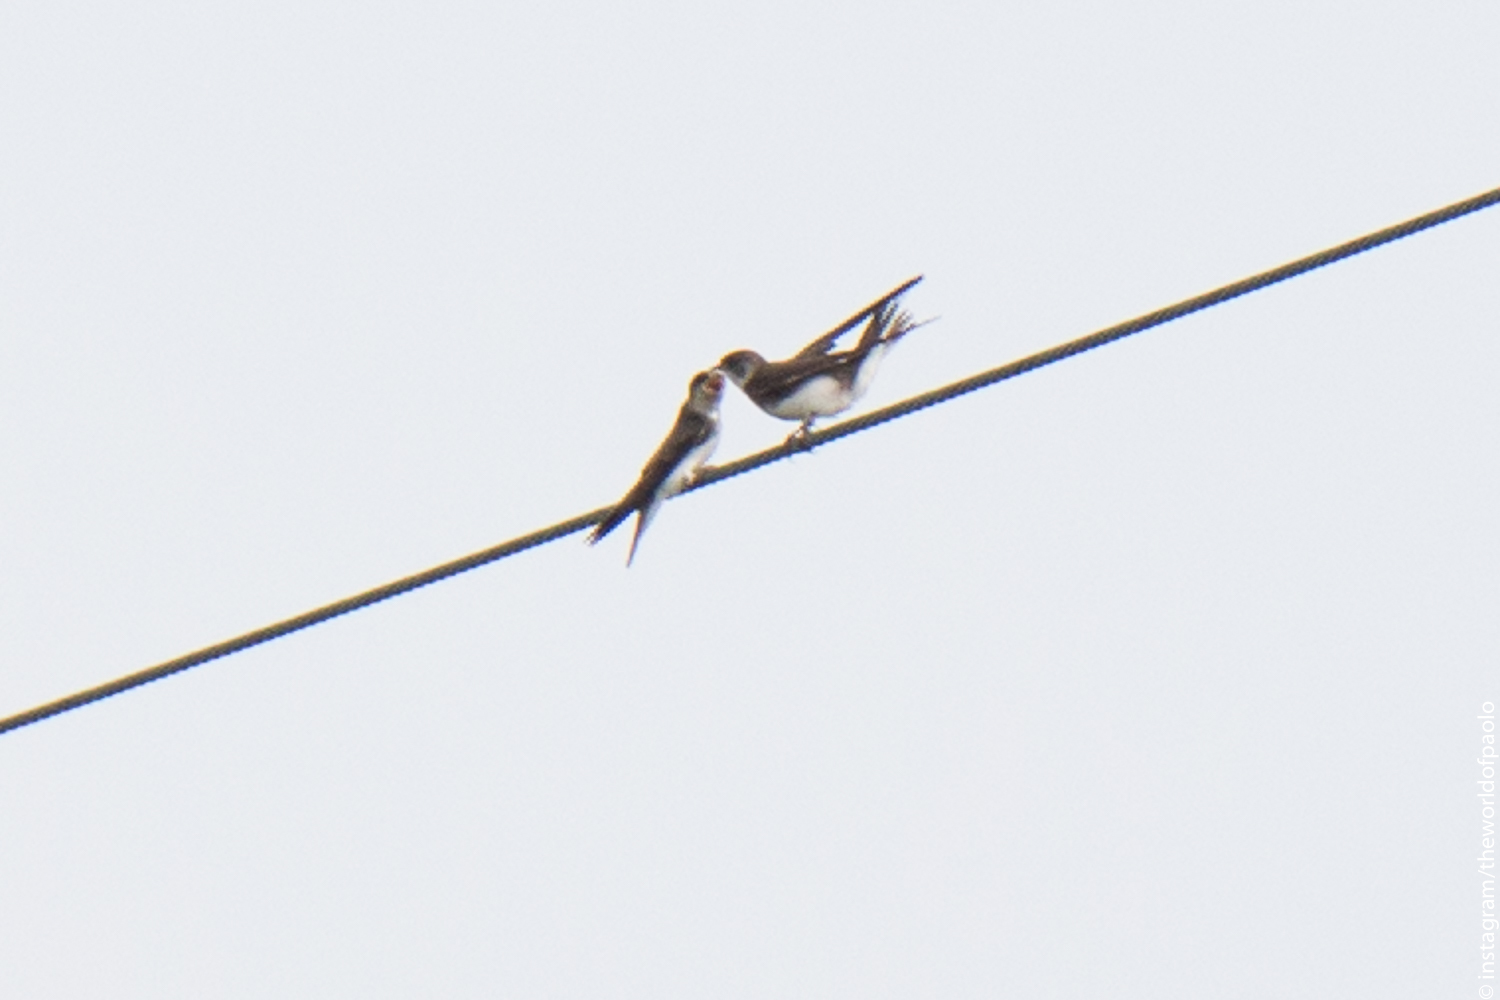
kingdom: Animalia
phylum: Chordata
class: Aves
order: Passeriformes
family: Hirundinidae
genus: Riparia
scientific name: Riparia riparia
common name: Sand martin
